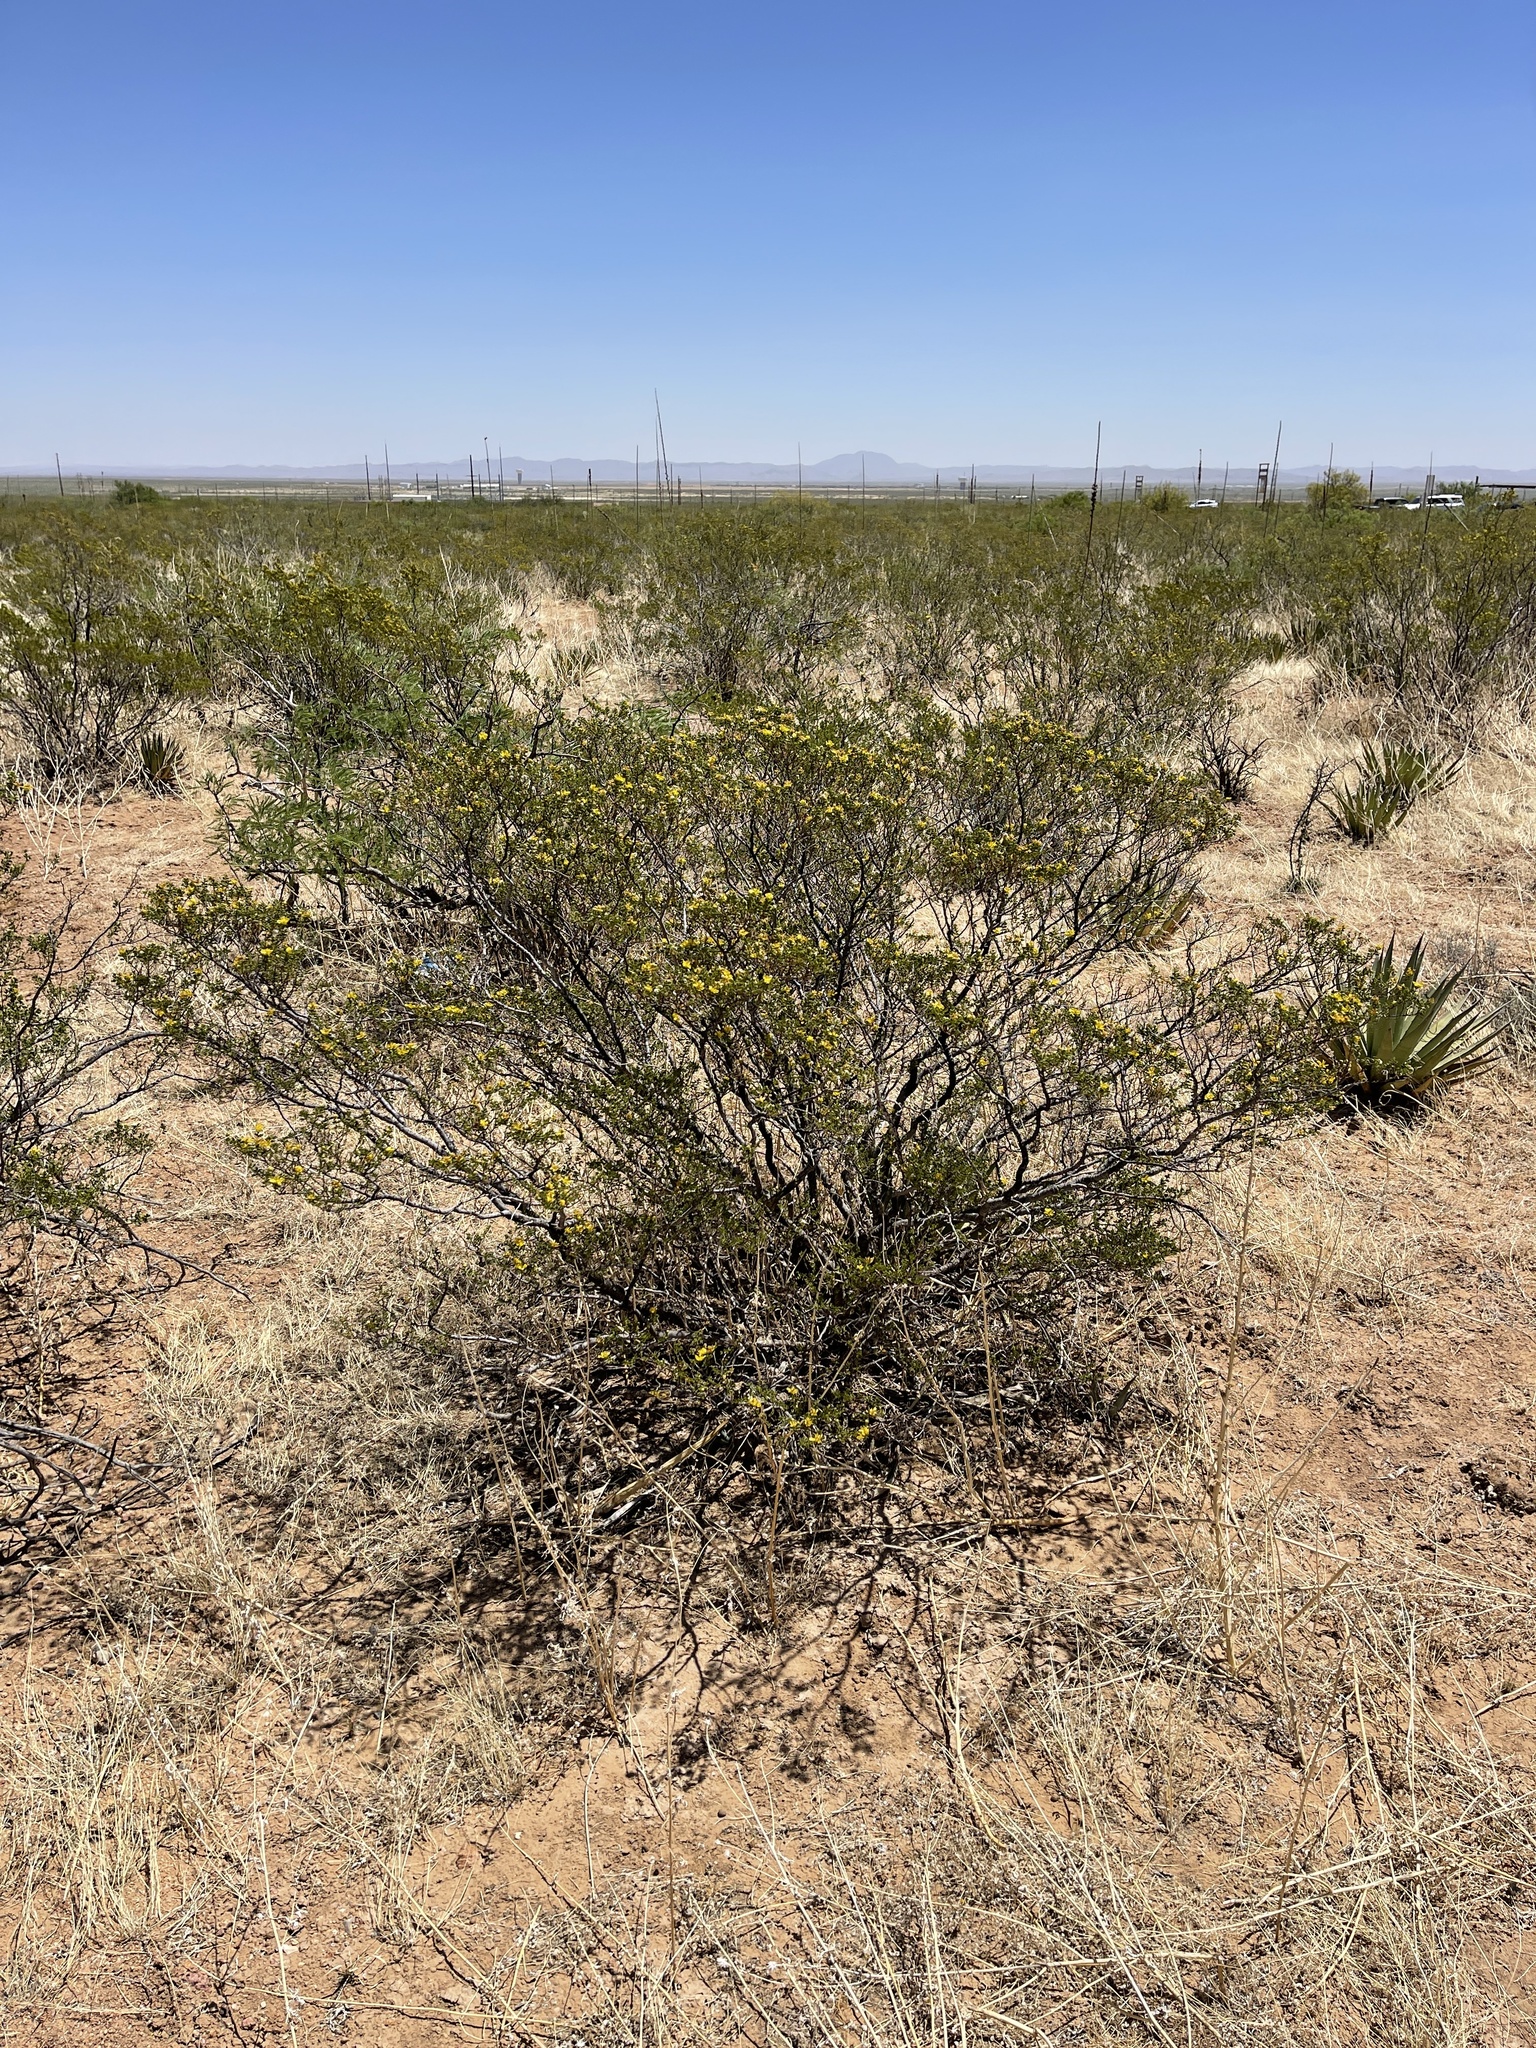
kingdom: Plantae
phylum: Tracheophyta
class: Magnoliopsida
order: Zygophyllales
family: Zygophyllaceae
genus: Larrea
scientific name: Larrea tridentata
